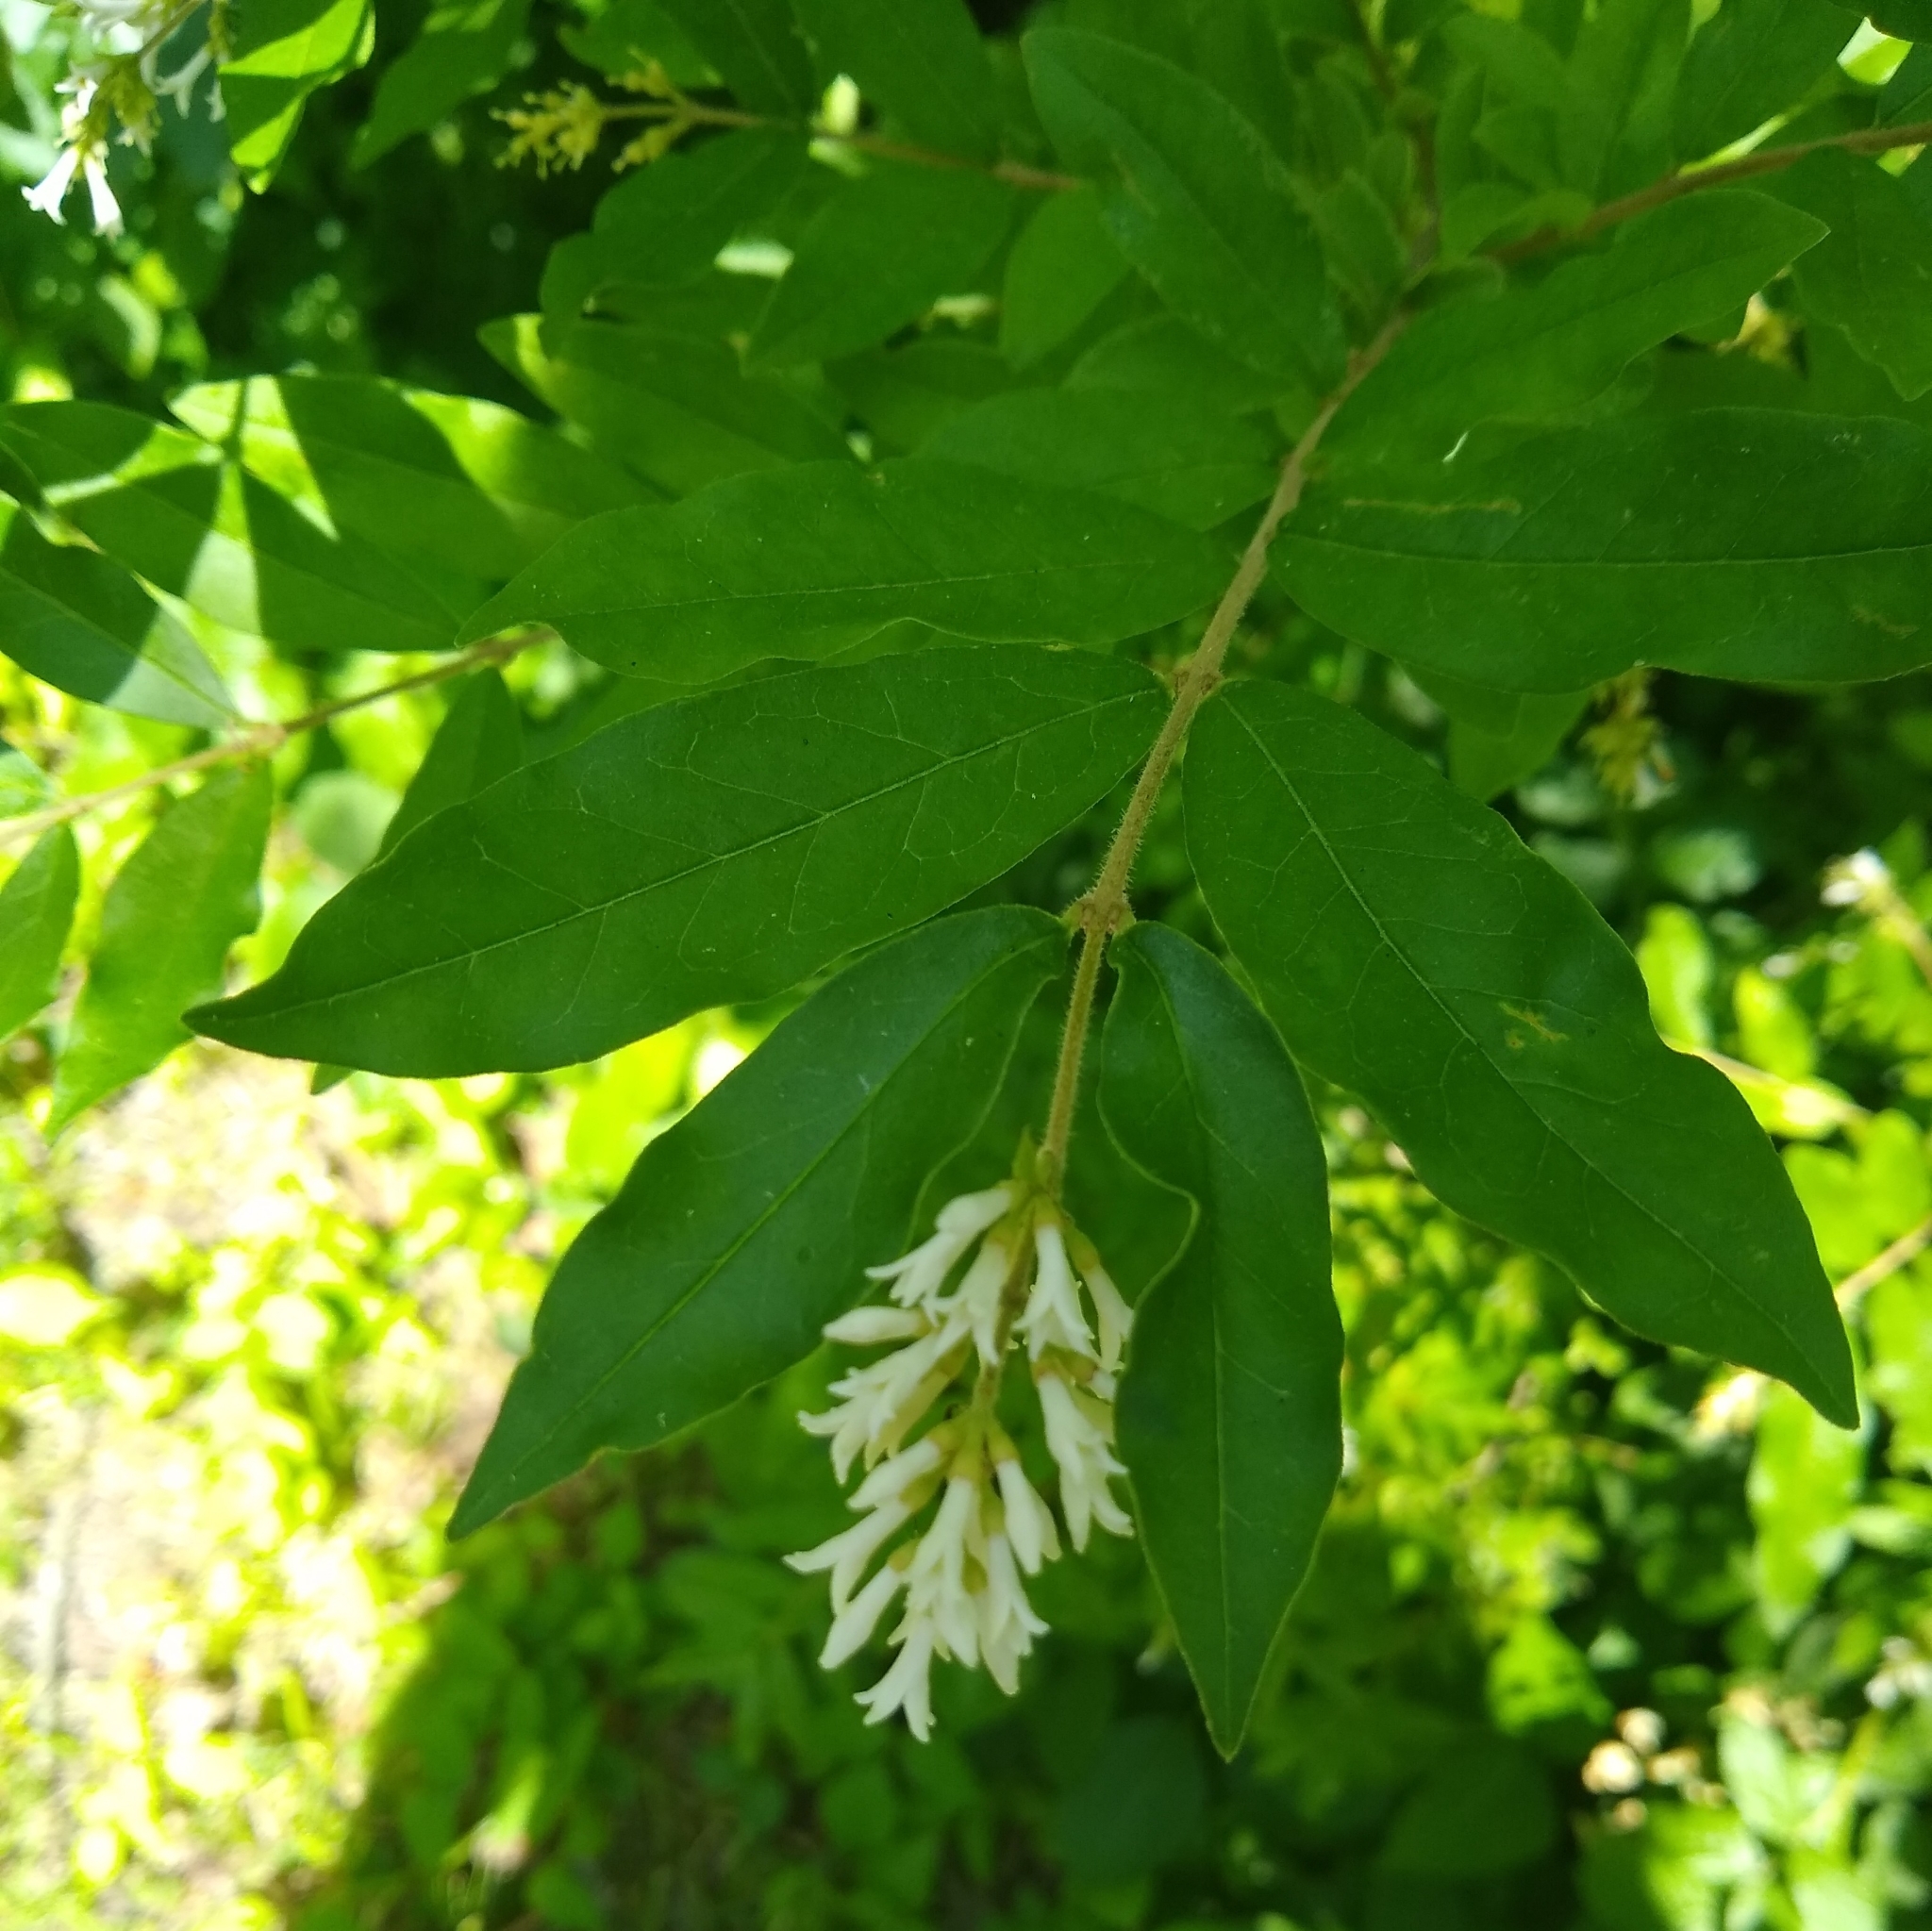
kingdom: Plantae
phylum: Tracheophyta
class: Magnoliopsida
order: Lamiales
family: Oleaceae
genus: Ligustrum
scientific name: Ligustrum obtusifolium
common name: Border privet
